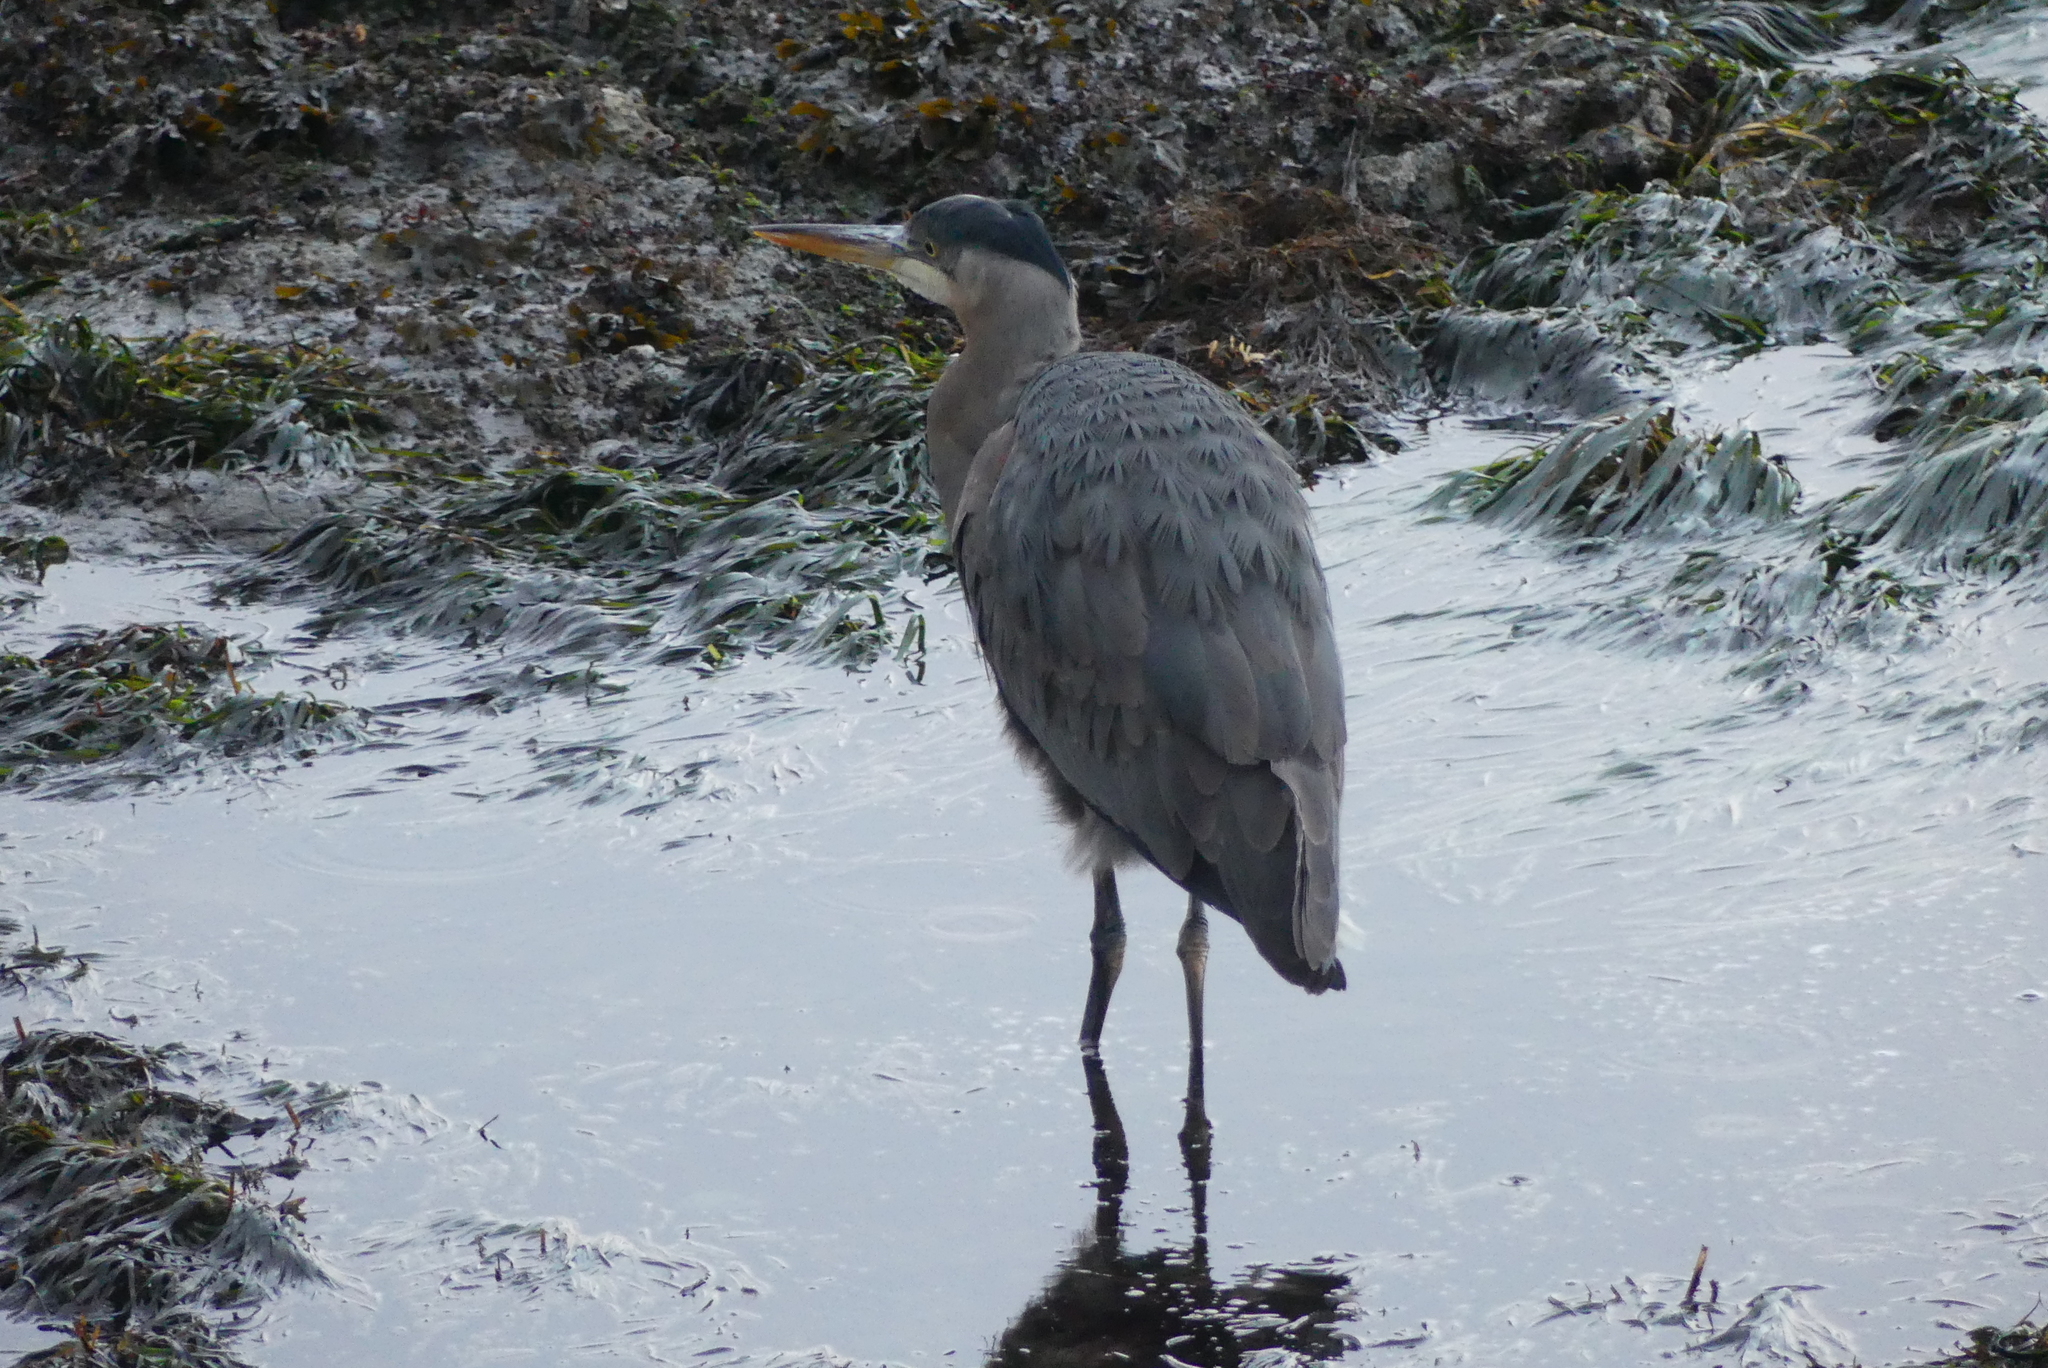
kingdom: Animalia
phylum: Chordata
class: Aves
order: Pelecaniformes
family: Ardeidae
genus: Ardea
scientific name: Ardea herodias
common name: Great blue heron
